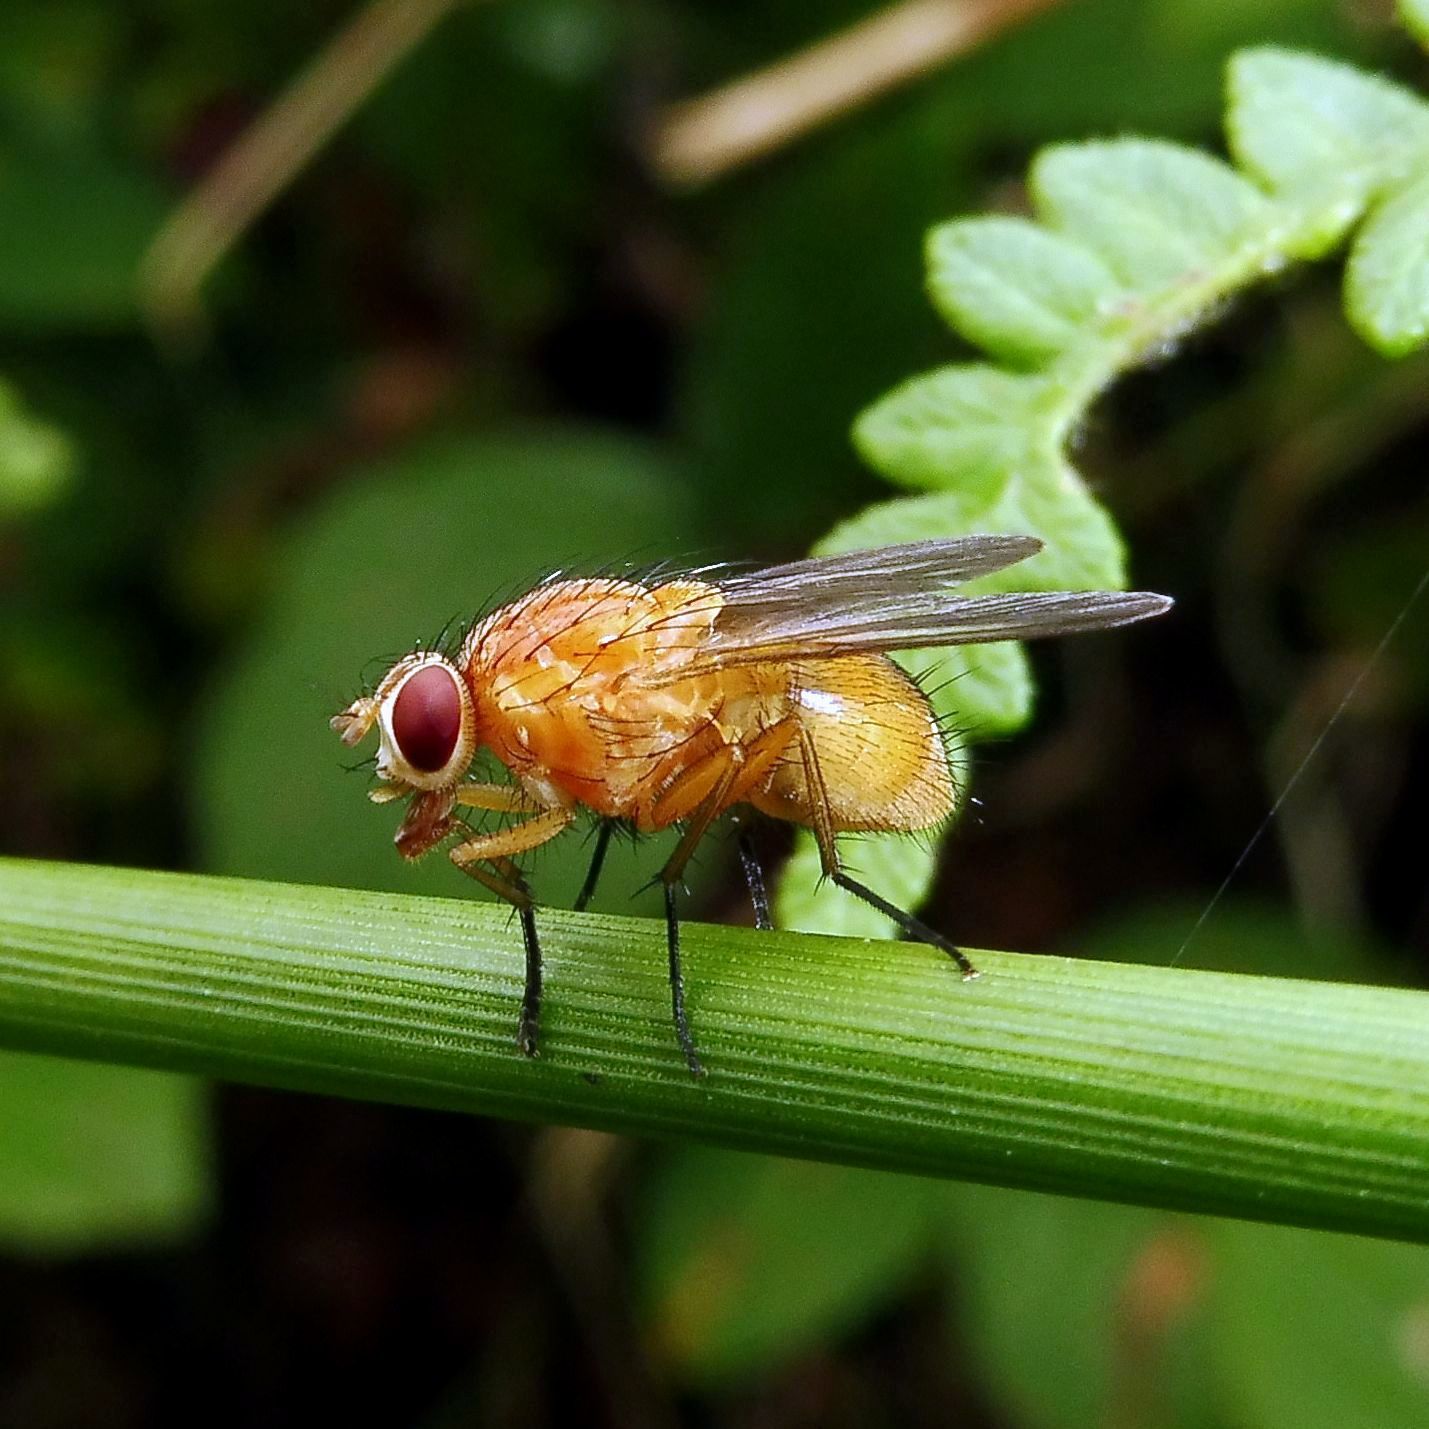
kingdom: Animalia
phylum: Arthropoda
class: Insecta
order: Diptera
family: Muscidae
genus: Phaonia
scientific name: Phaonia pallida
